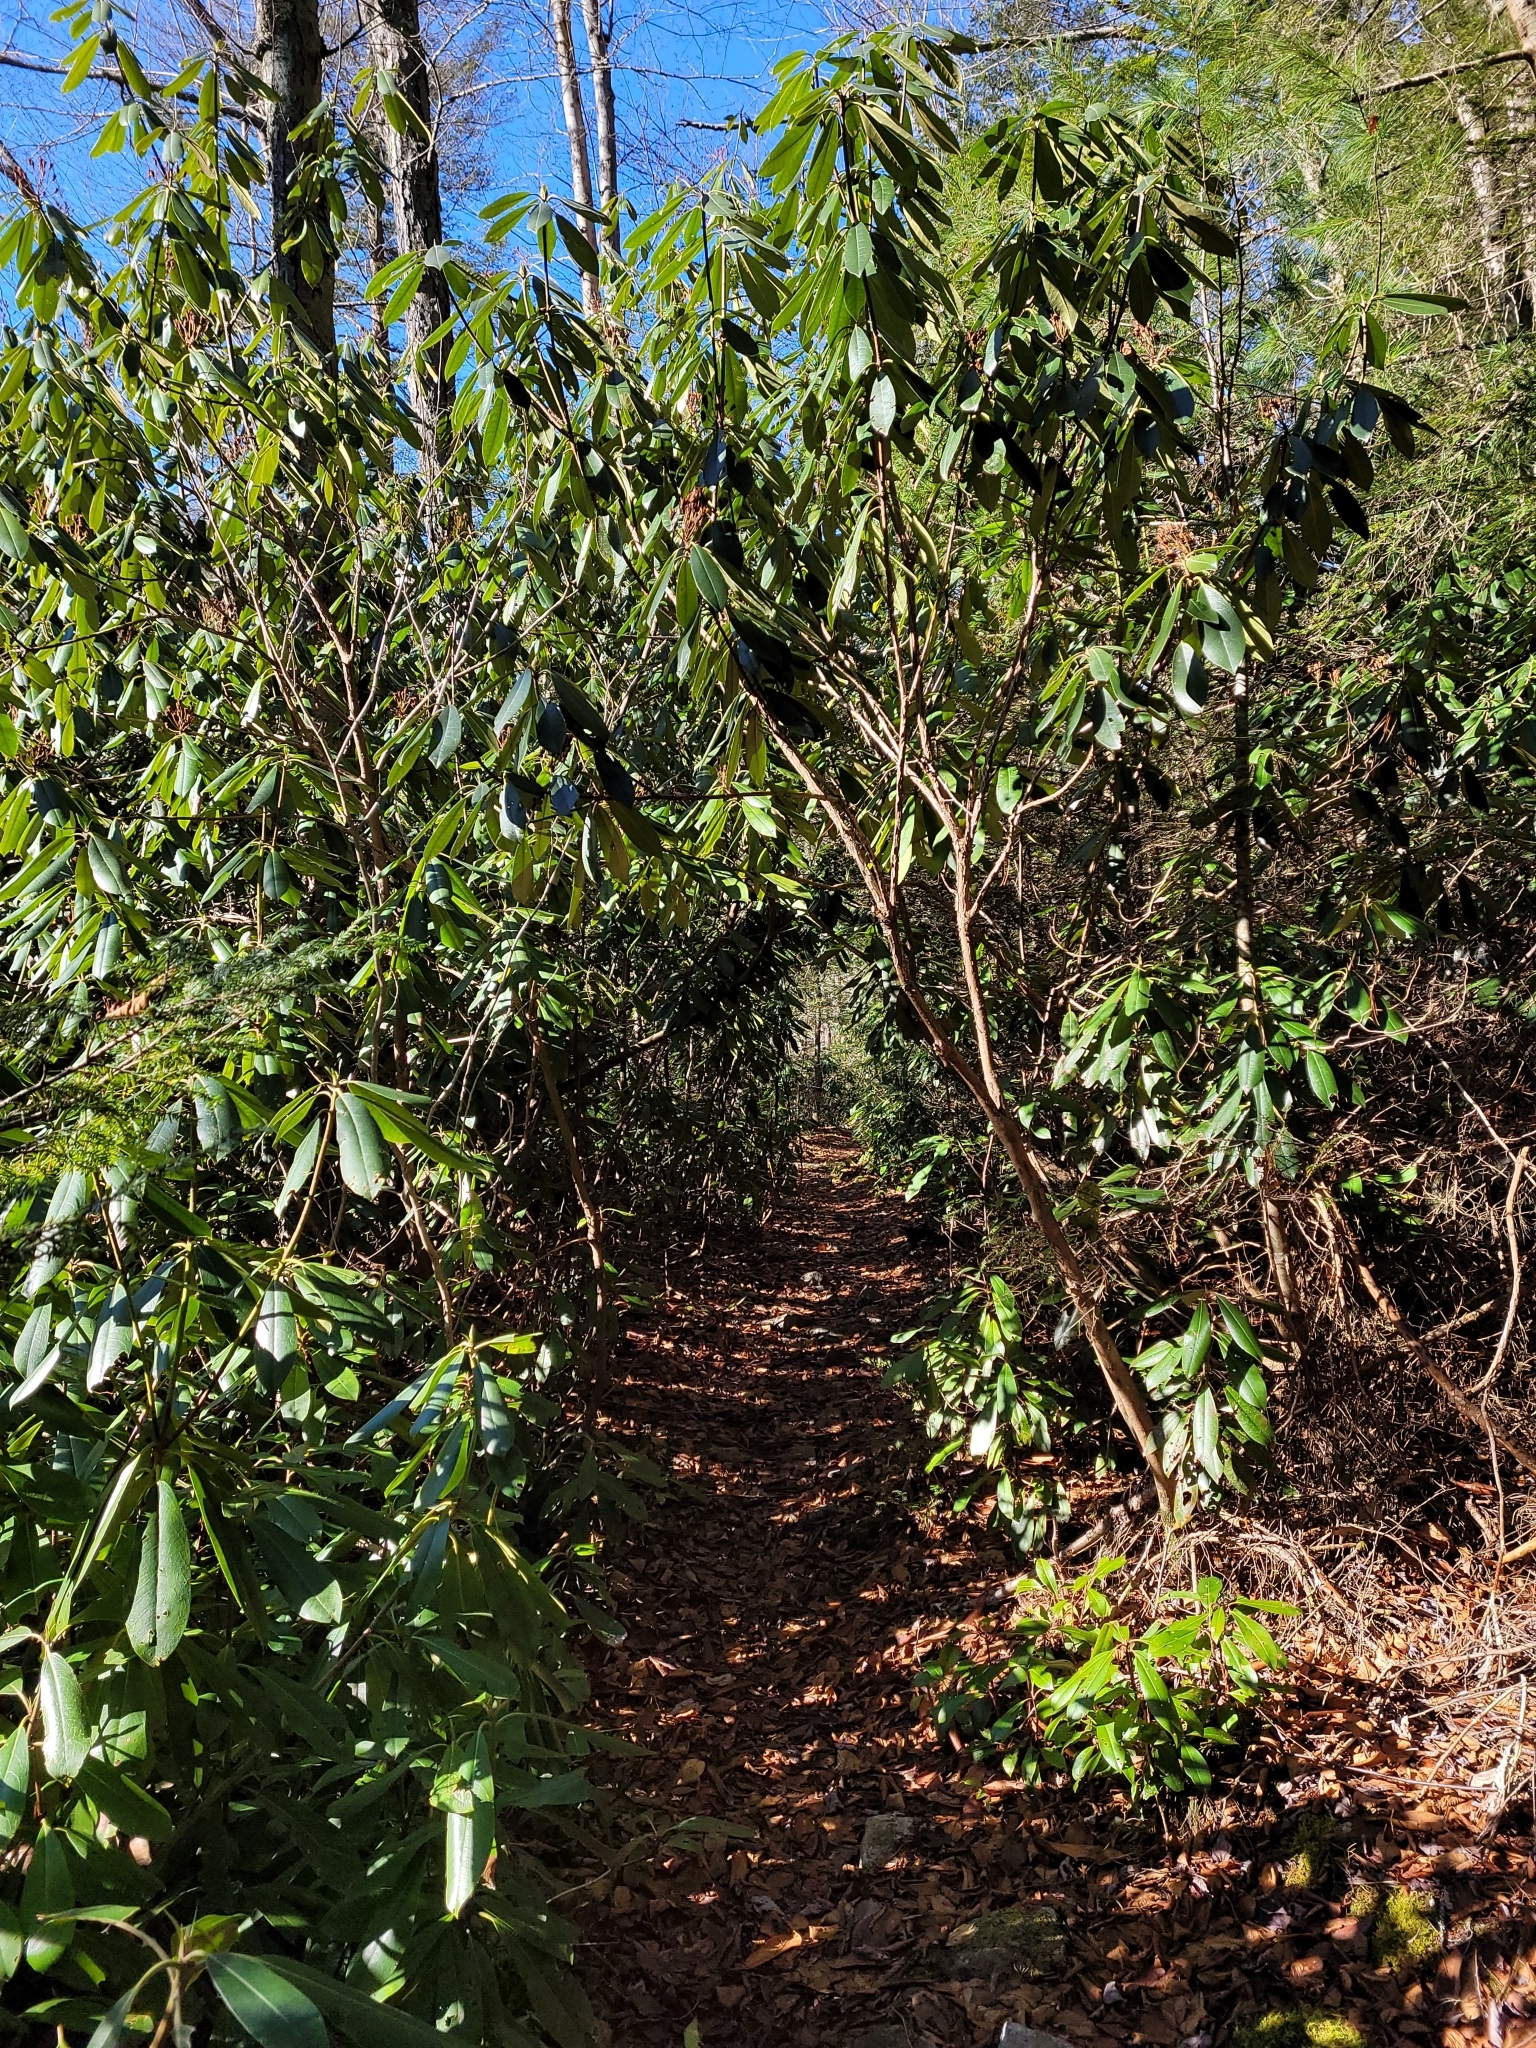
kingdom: Plantae
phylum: Tracheophyta
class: Magnoliopsida
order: Ericales
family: Ericaceae
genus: Rhododendron
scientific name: Rhododendron maximum
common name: Great rhododendron
